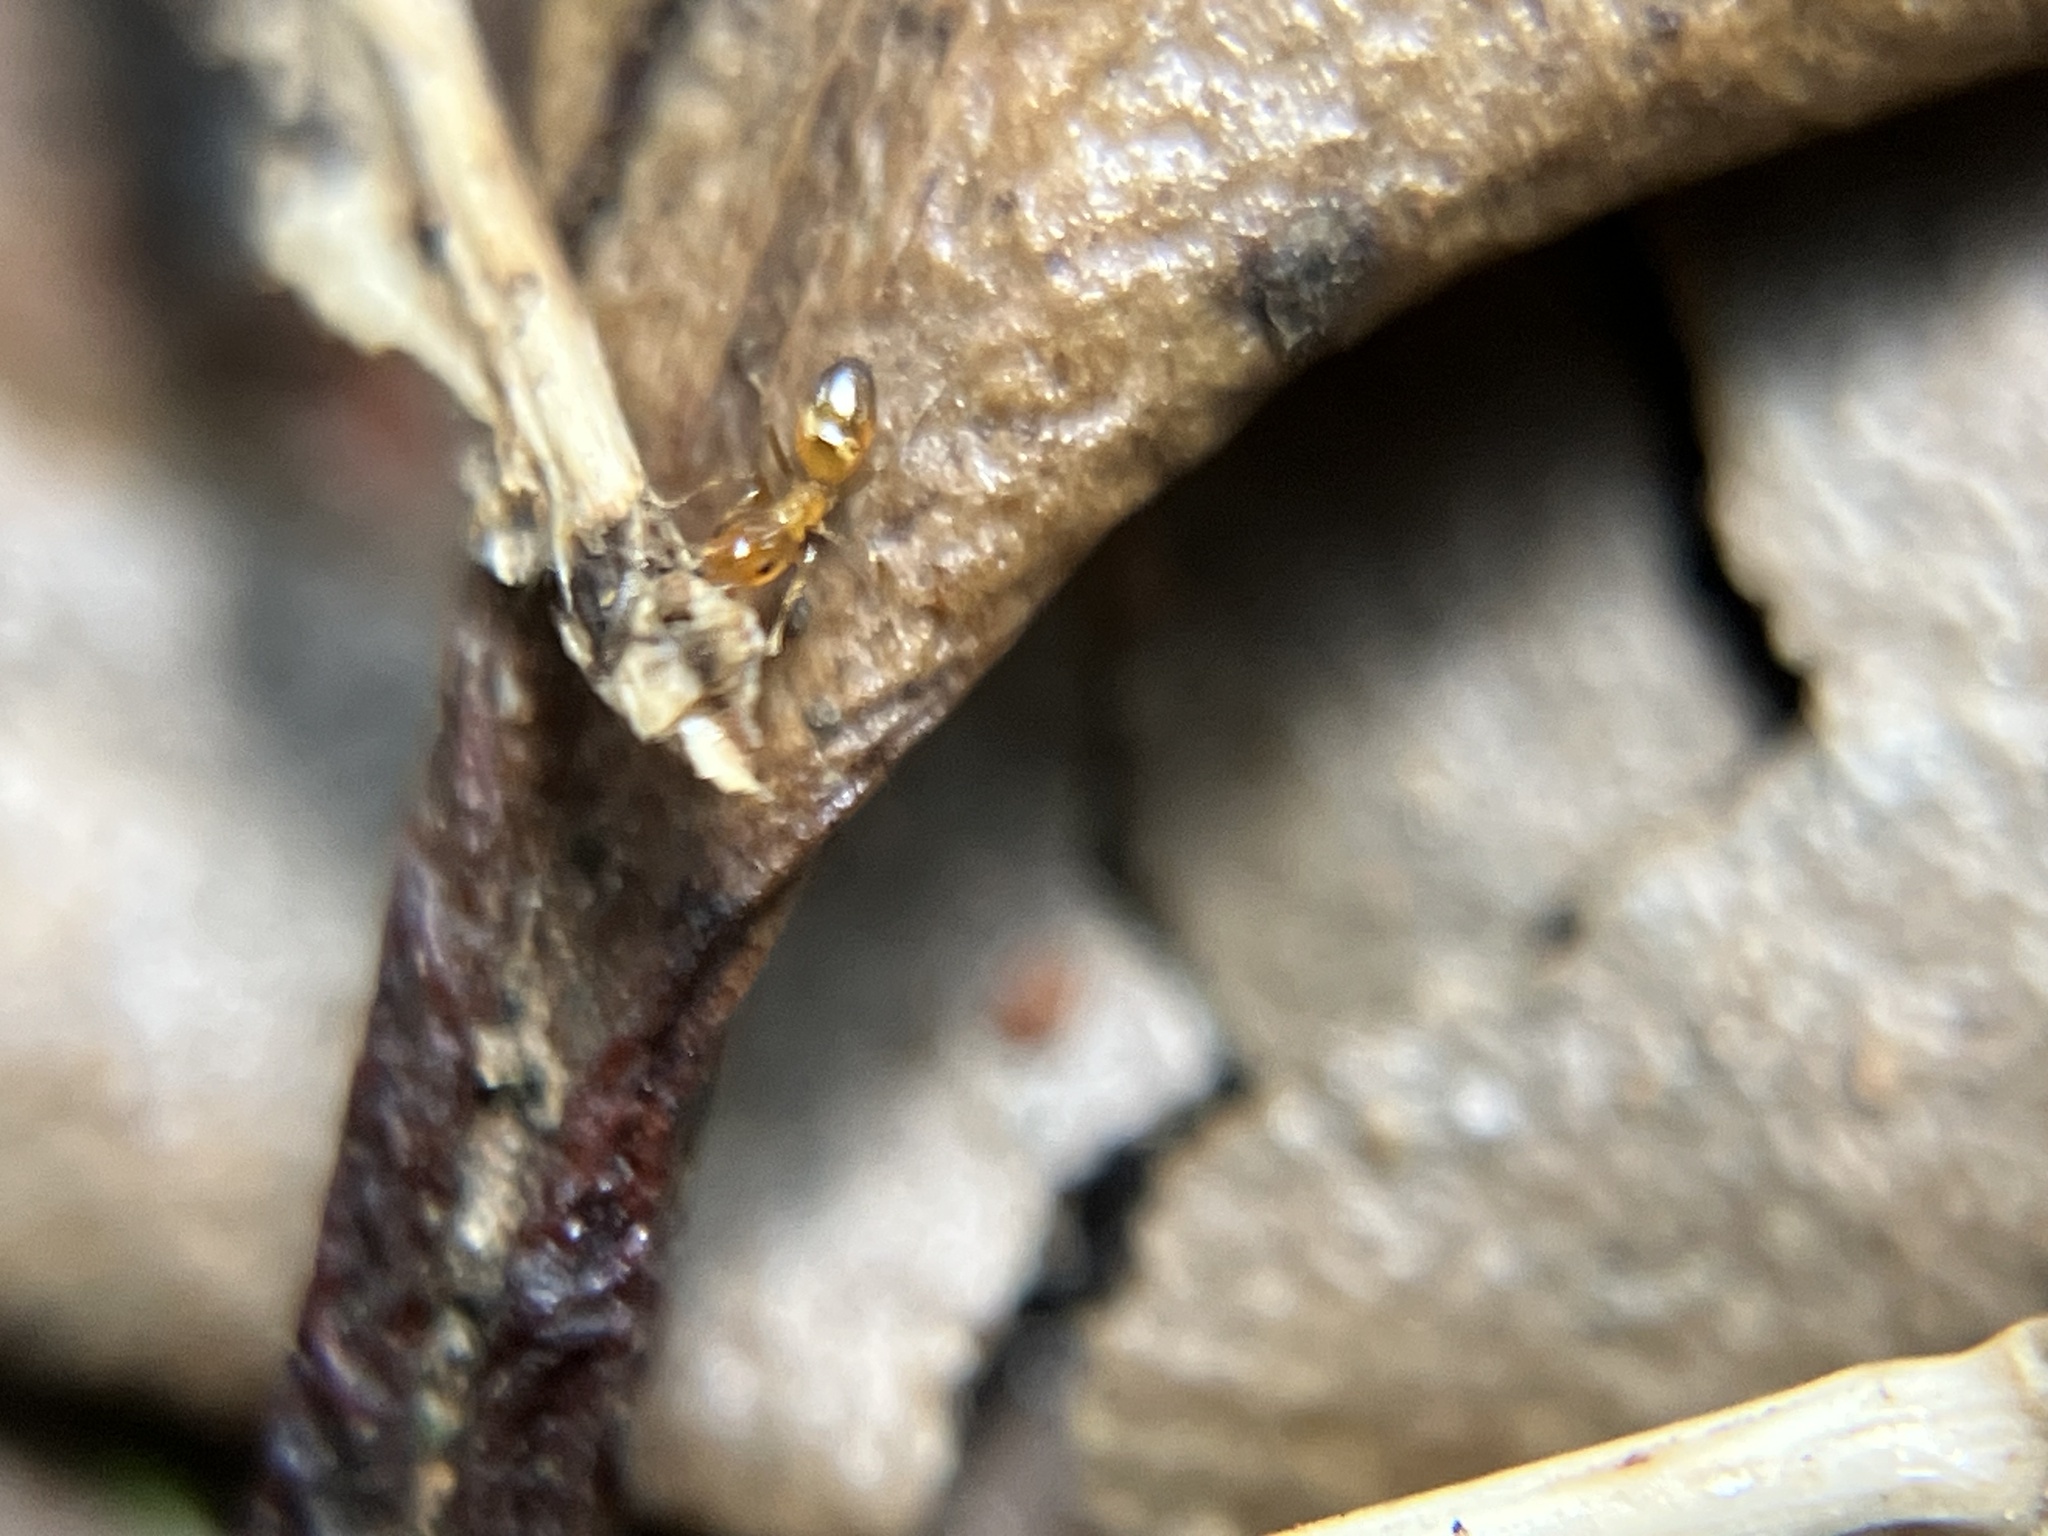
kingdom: Animalia
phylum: Arthropoda
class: Insecta
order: Hymenoptera
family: Formicidae
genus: Plagiolepis
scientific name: Plagiolepis alluaudi
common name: Little yellow ant
